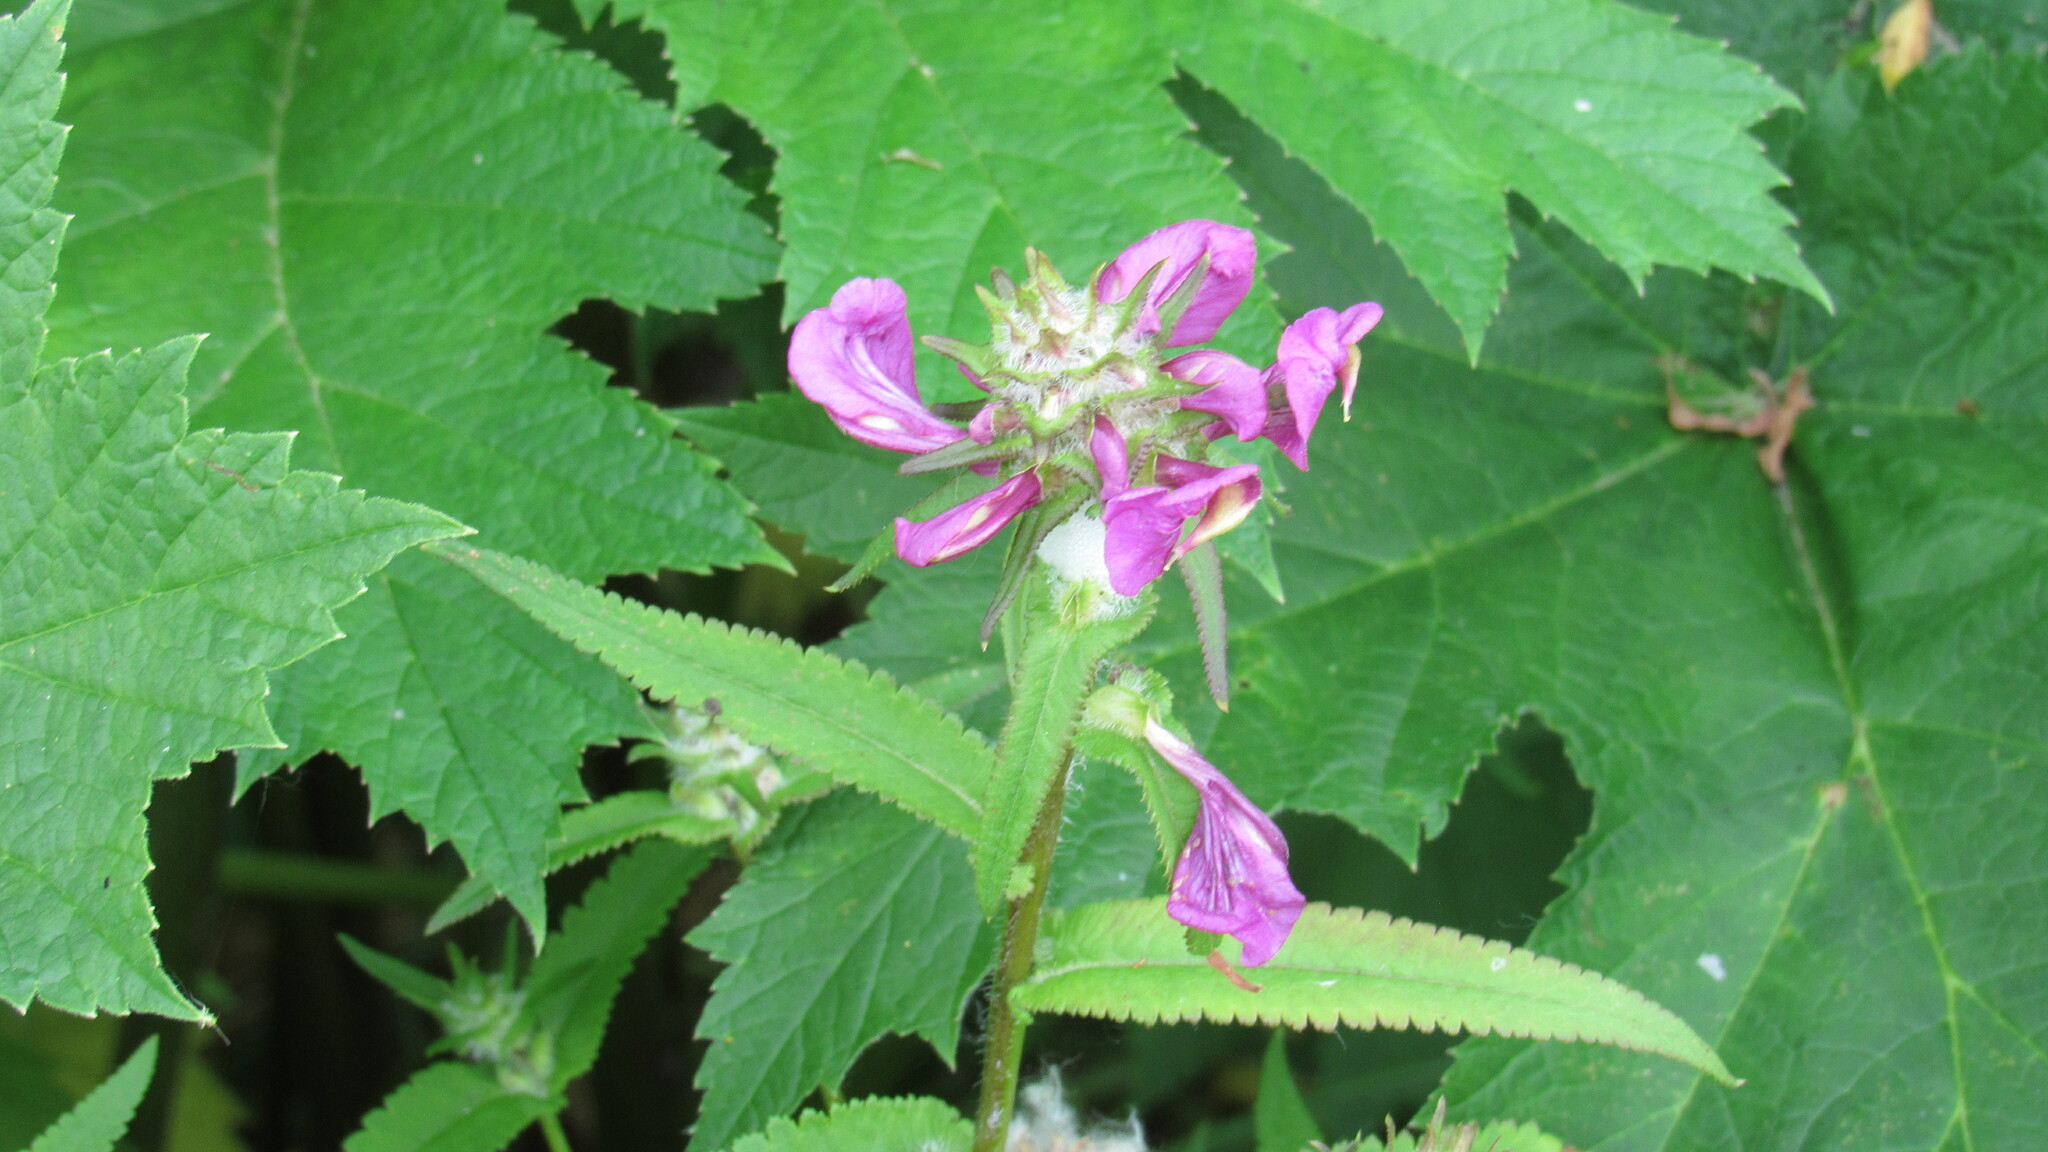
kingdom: Plantae
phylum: Tracheophyta
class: Magnoliopsida
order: Lamiales
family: Orobanchaceae
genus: Pedicularis
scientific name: Pedicularis resupinata
